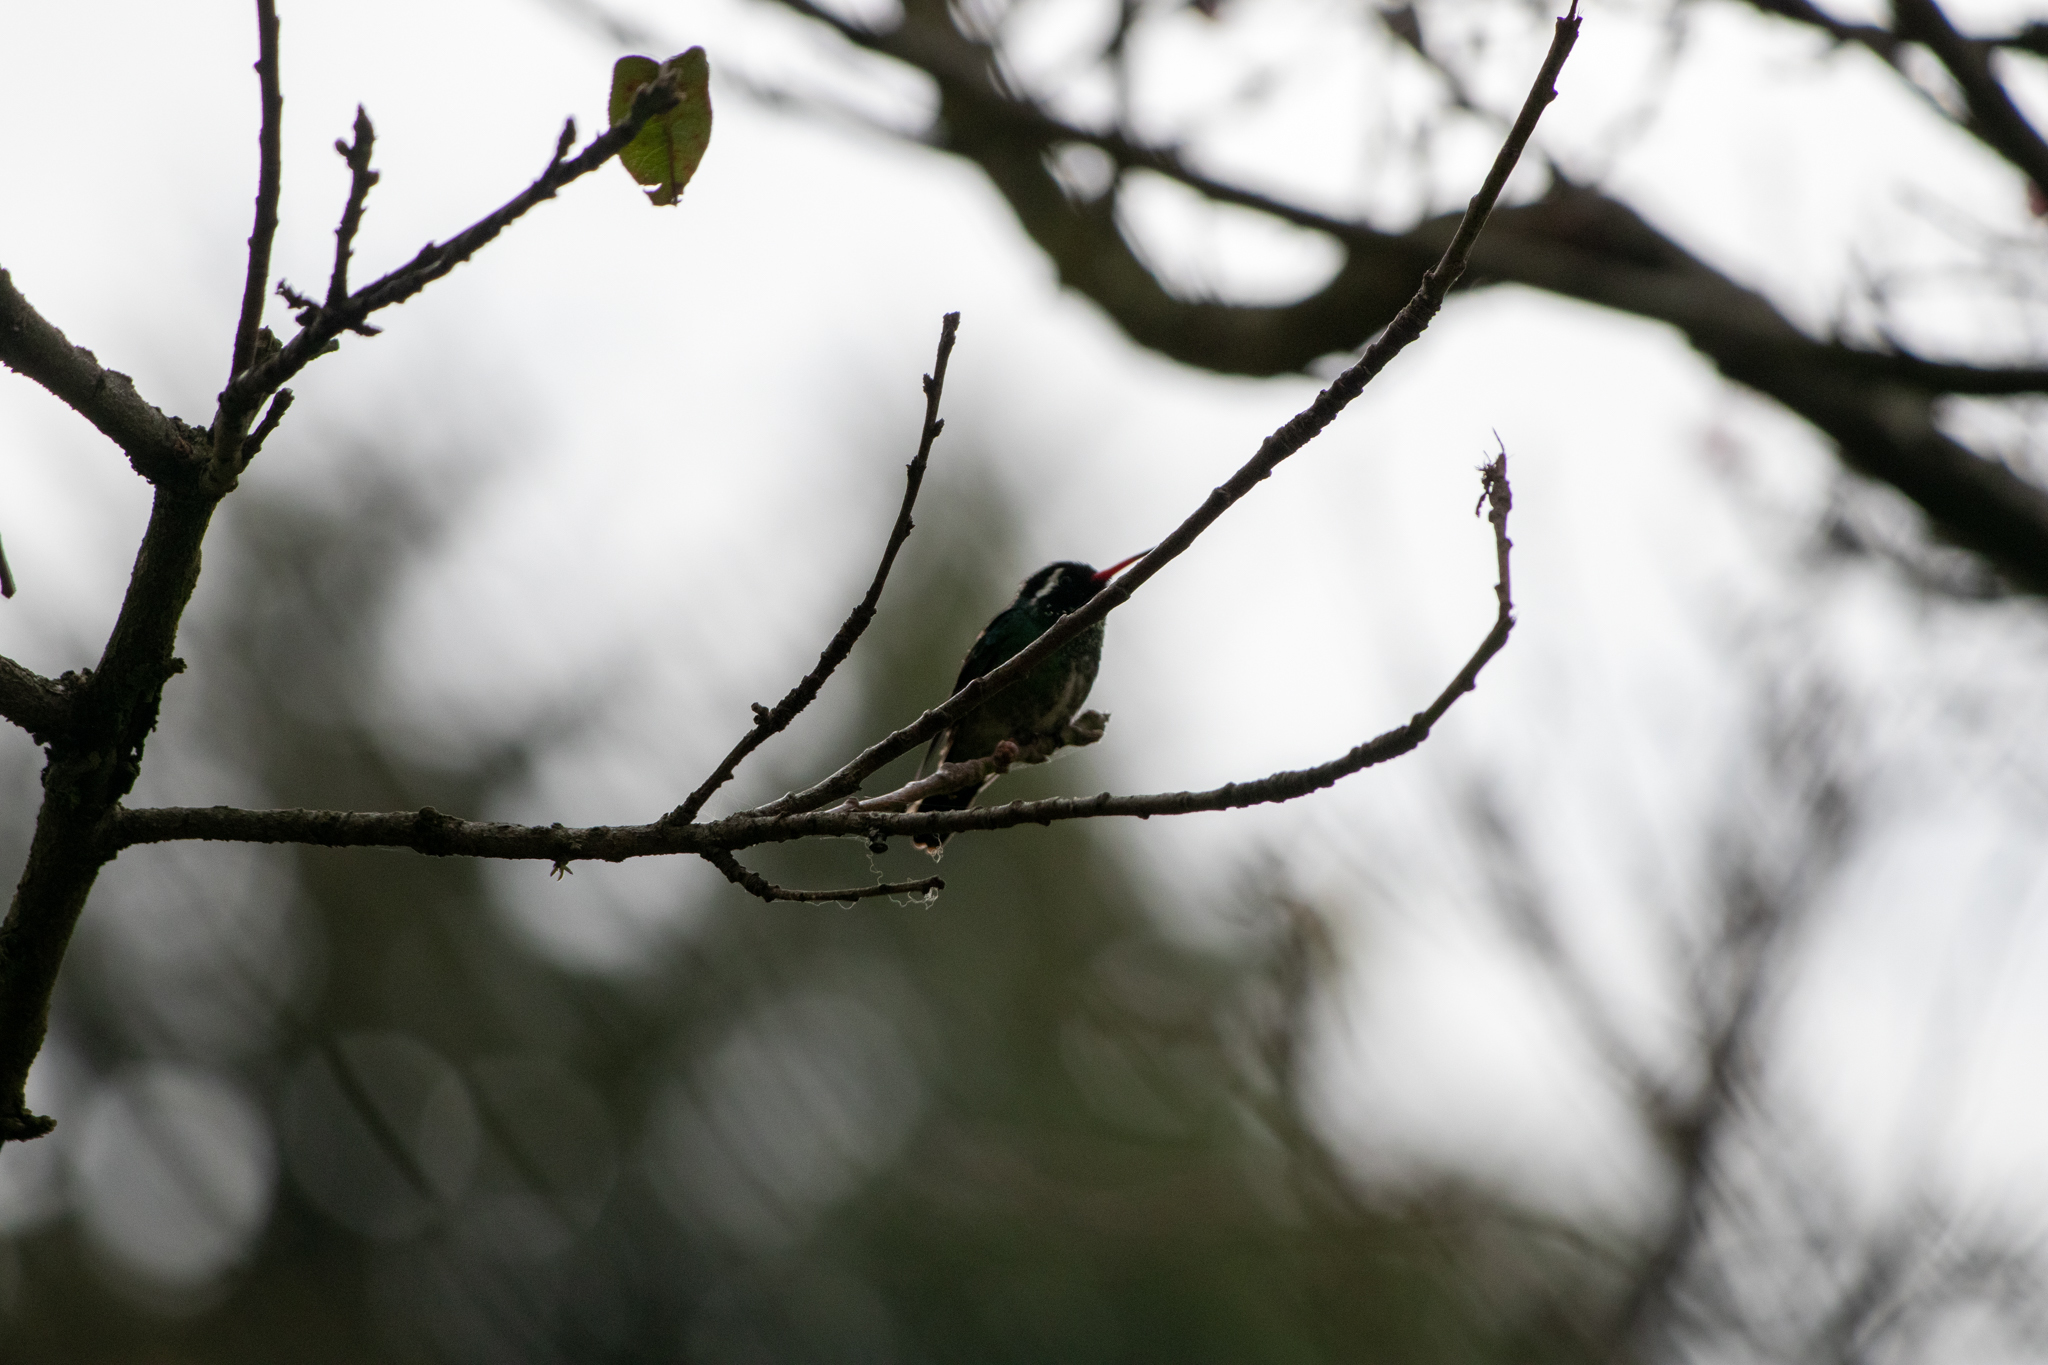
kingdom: Animalia
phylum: Chordata
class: Aves
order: Apodiformes
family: Trochilidae
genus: Basilinna
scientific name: Basilinna leucotis
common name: White-eared hummingbird
